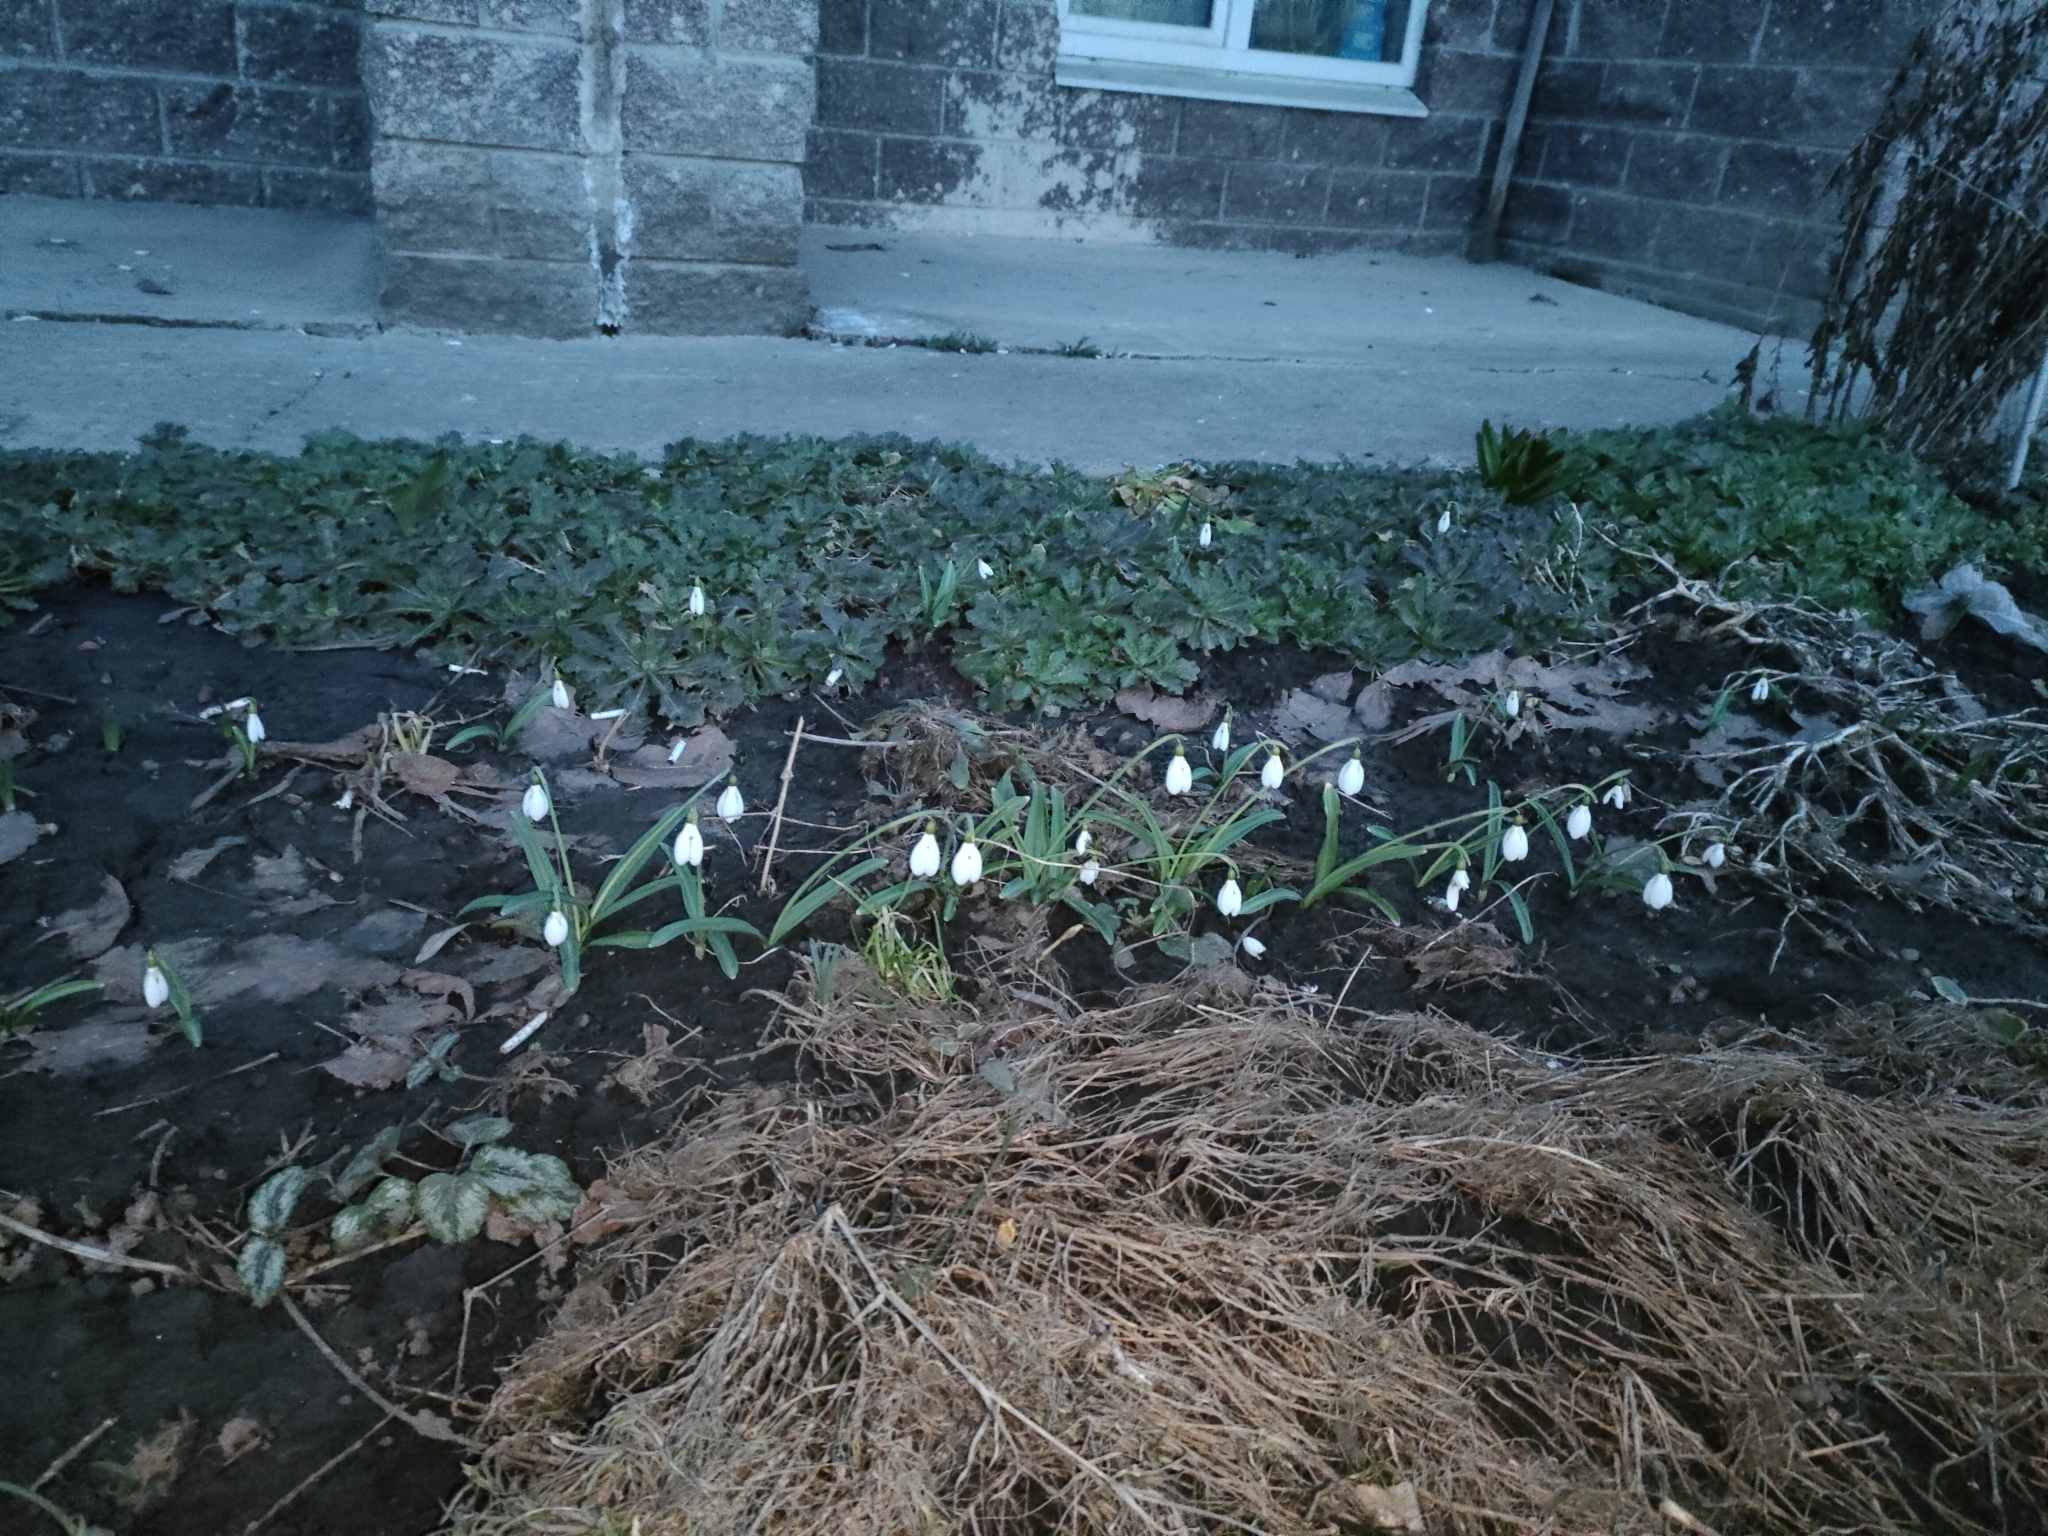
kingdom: Plantae
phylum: Tracheophyta
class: Liliopsida
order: Asparagales
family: Amaryllidaceae
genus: Galanthus
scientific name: Galanthus nivalis
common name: Snowdrop
